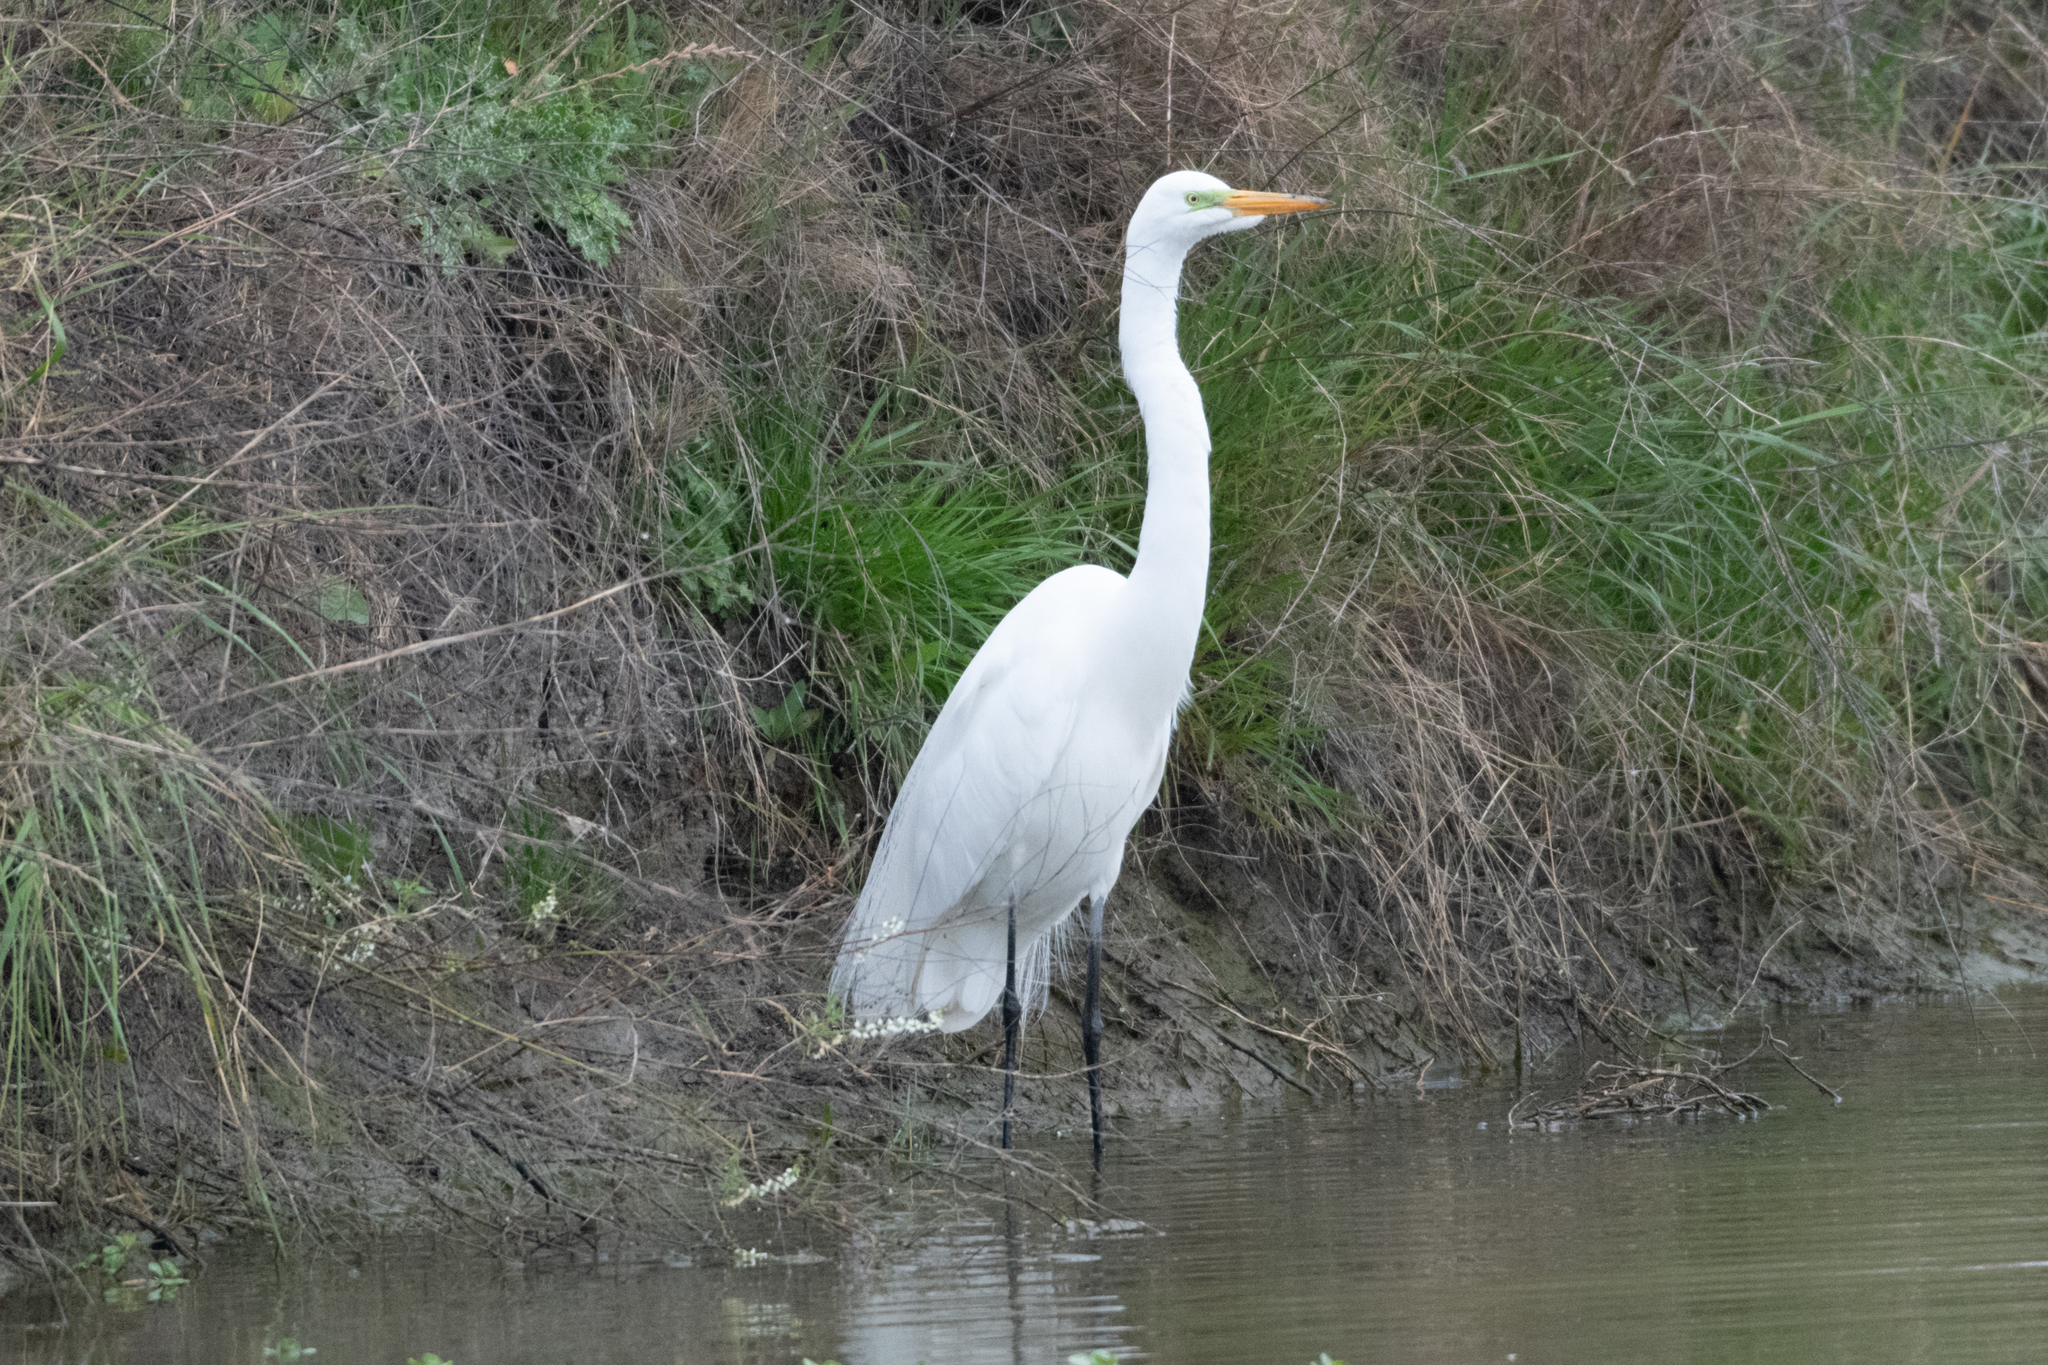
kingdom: Animalia
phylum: Chordata
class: Aves
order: Pelecaniformes
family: Ardeidae
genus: Ardea
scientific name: Ardea alba
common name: Great egret
